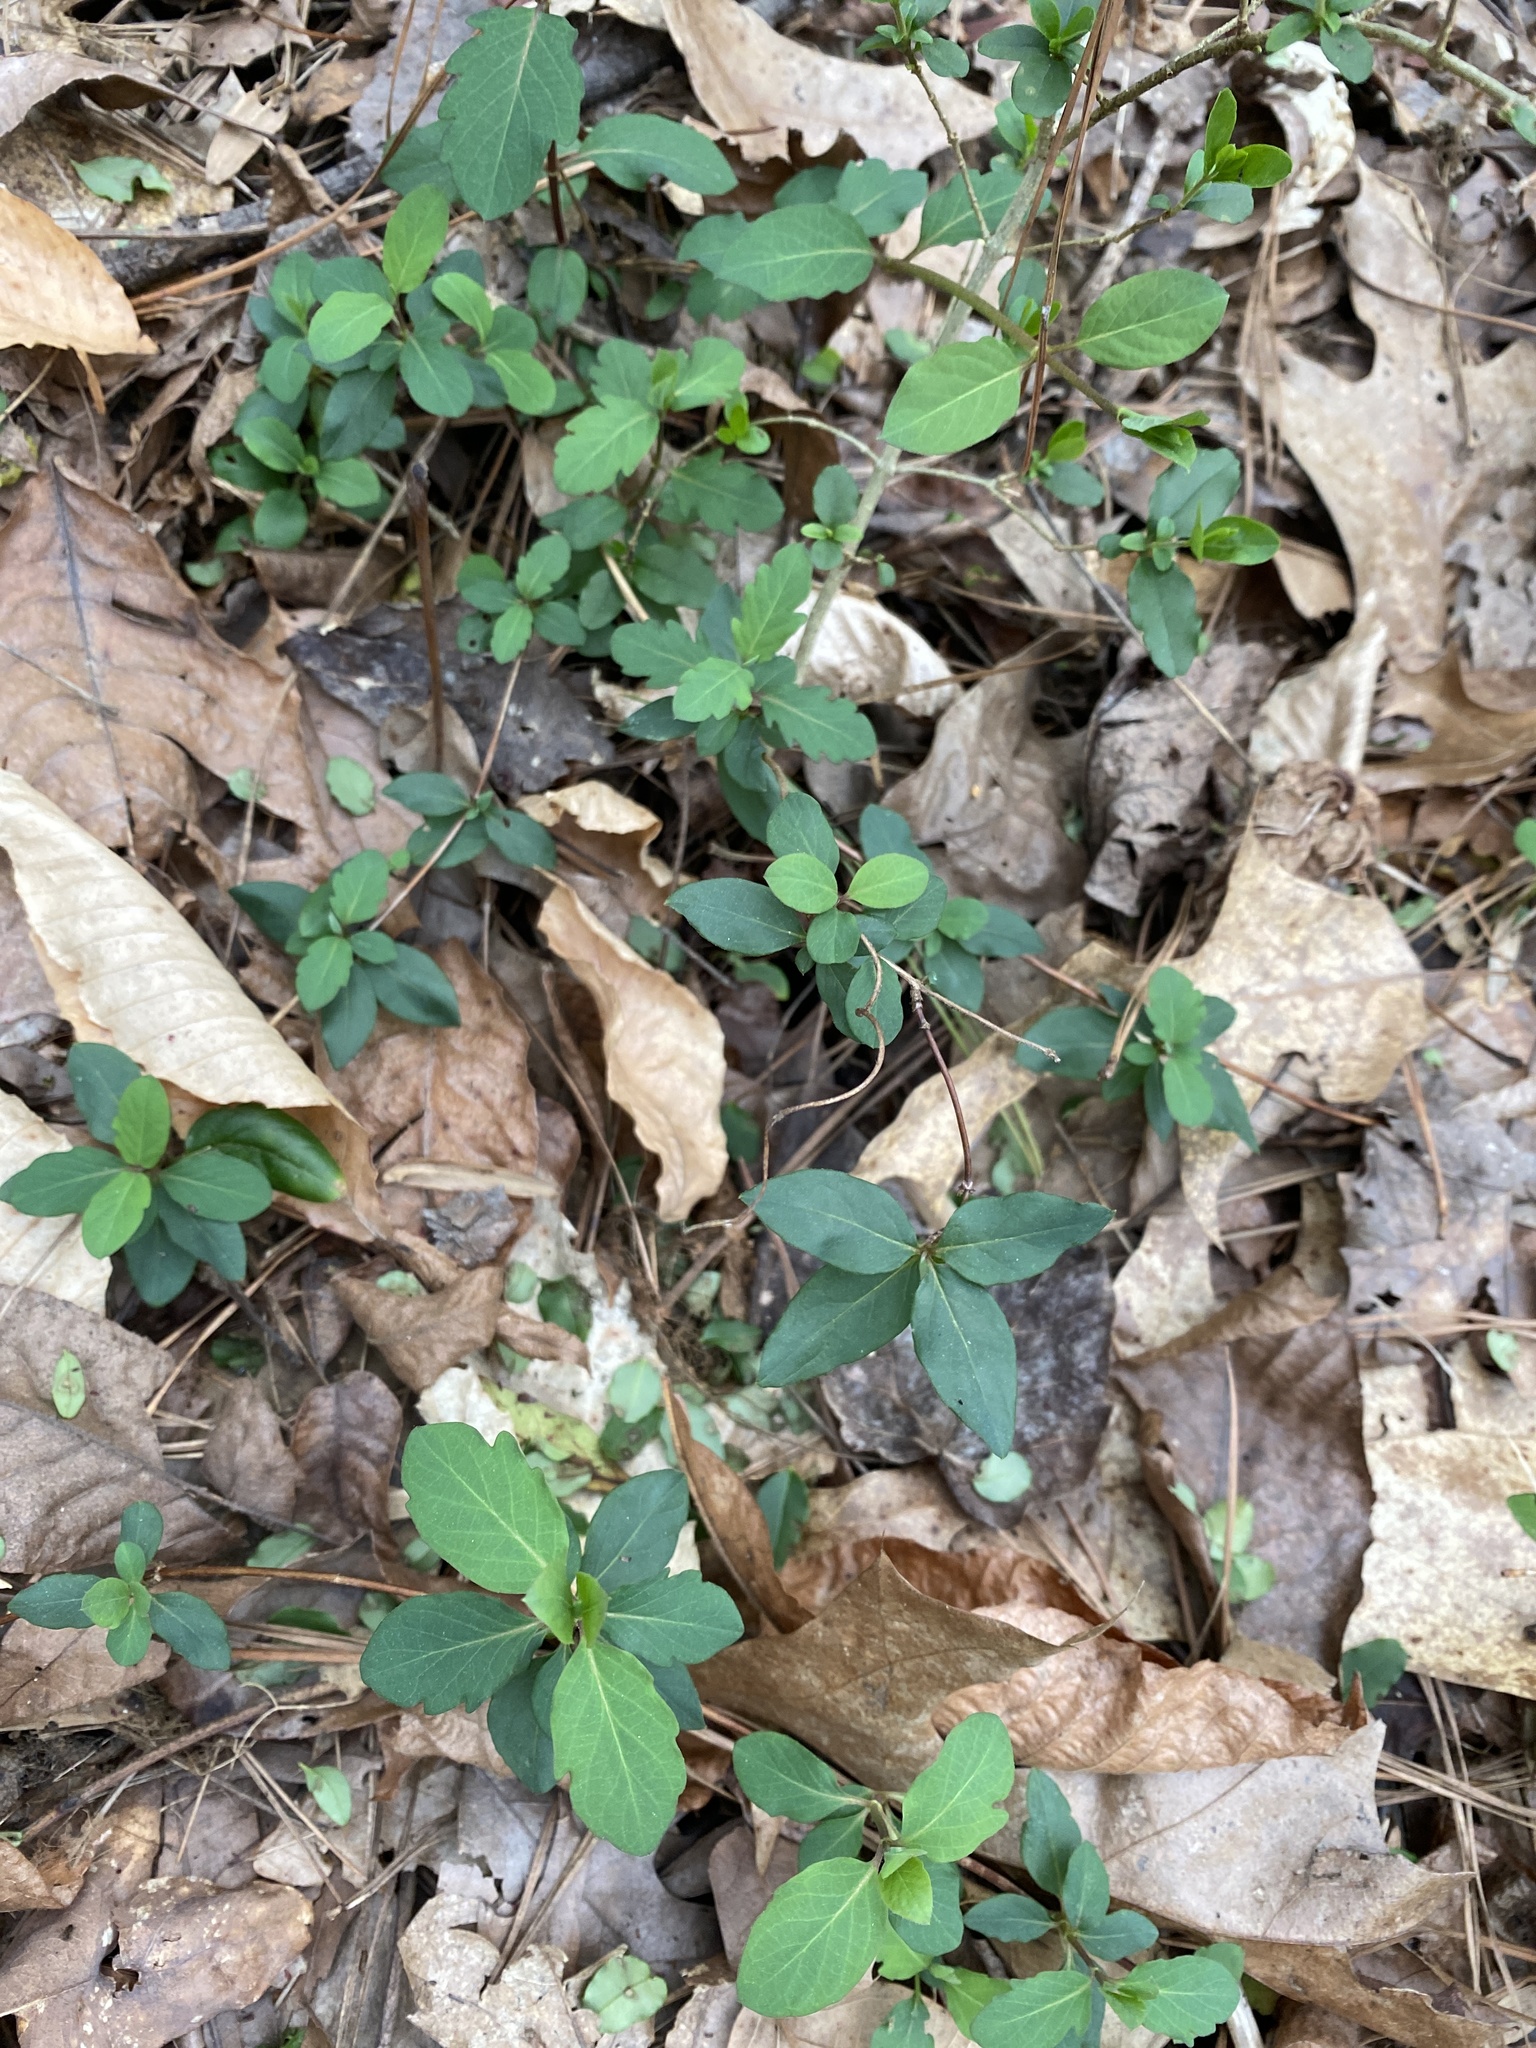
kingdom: Plantae
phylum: Tracheophyta
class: Magnoliopsida
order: Dipsacales
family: Caprifoliaceae
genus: Lonicera
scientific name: Lonicera japonica
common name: Japanese honeysuckle
